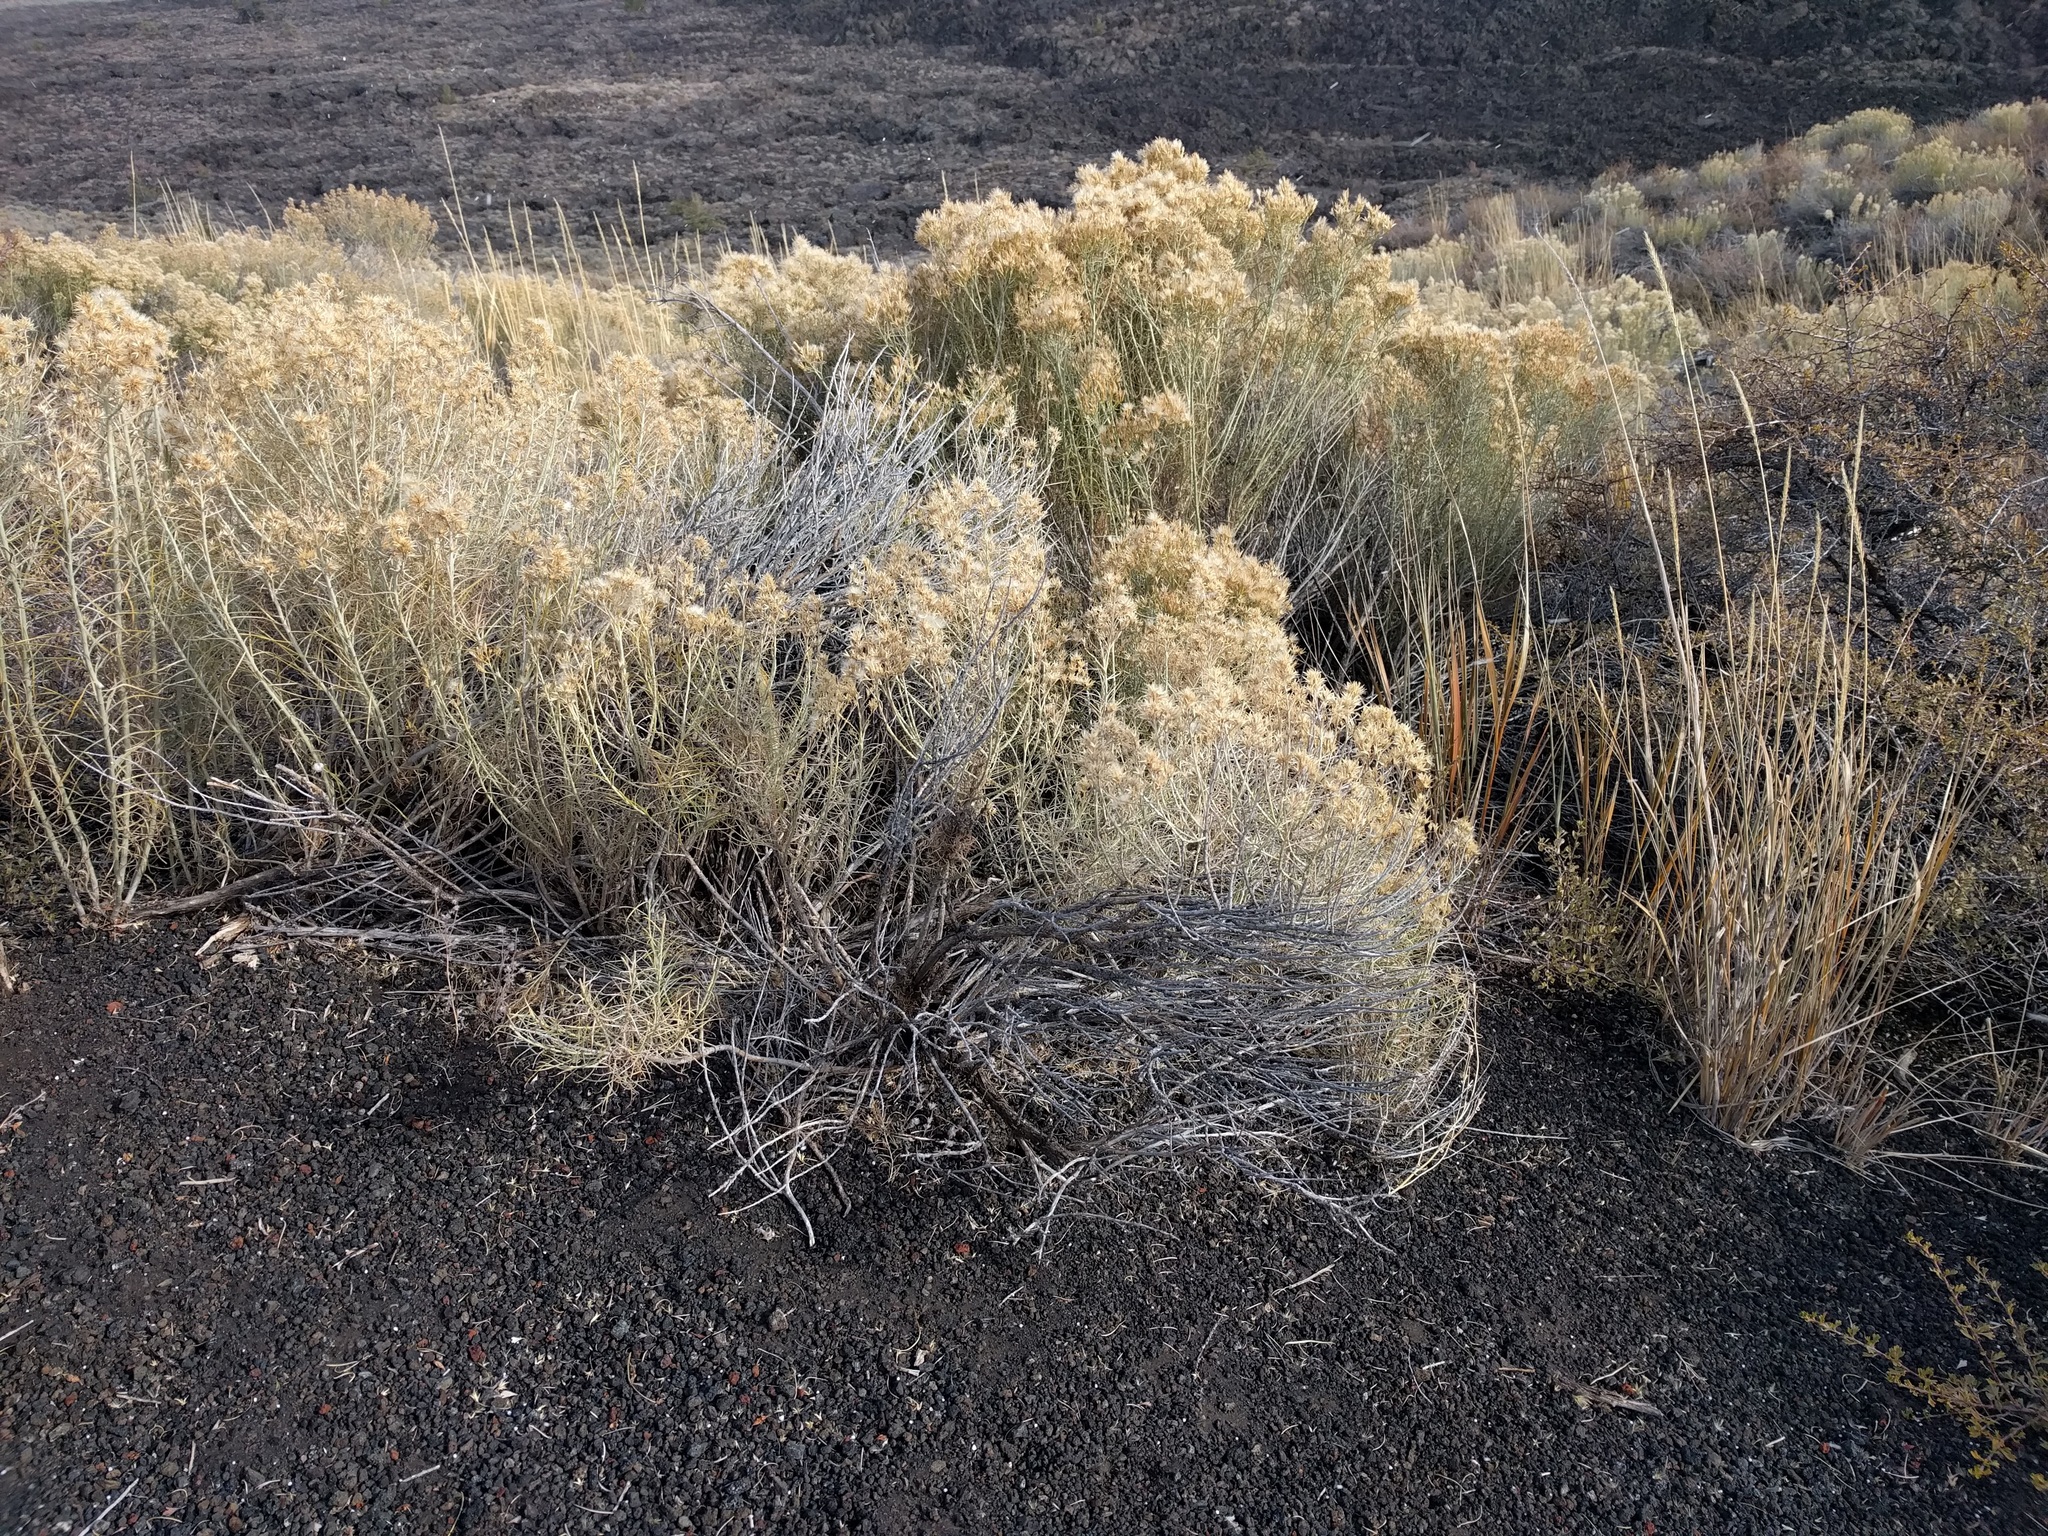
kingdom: Plantae
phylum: Tracheophyta
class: Magnoliopsida
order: Asterales
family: Asteraceae
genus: Ericameria
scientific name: Ericameria nauseosa
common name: Rubber rabbitbrush
